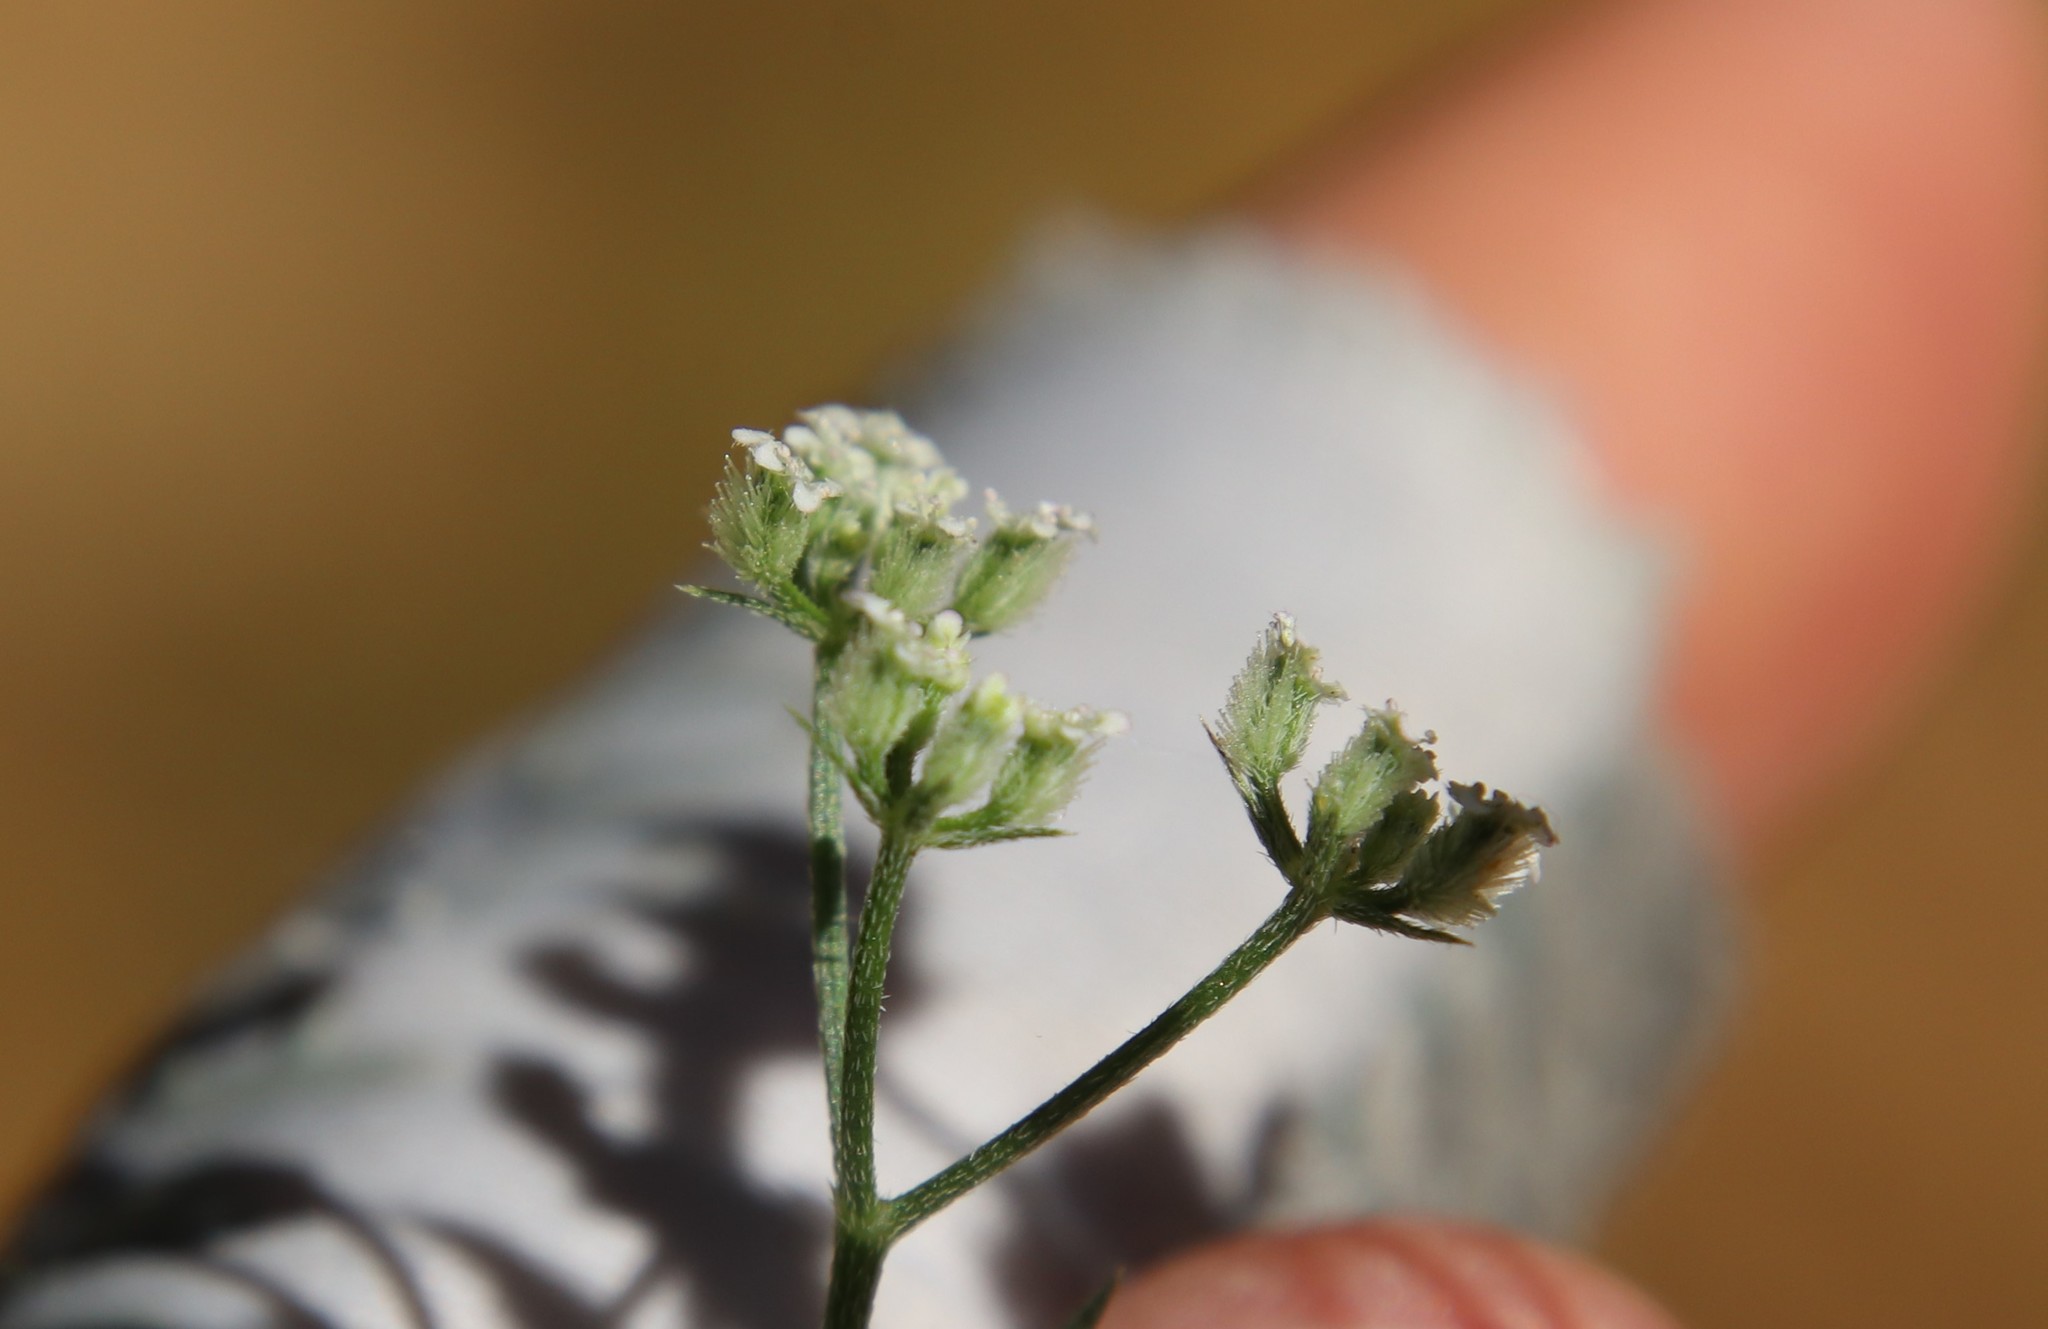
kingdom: Plantae
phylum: Tracheophyta
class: Magnoliopsida
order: Apiales
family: Apiaceae
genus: Torilis
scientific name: Torilis arvensis
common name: Spreading hedge-parsley
